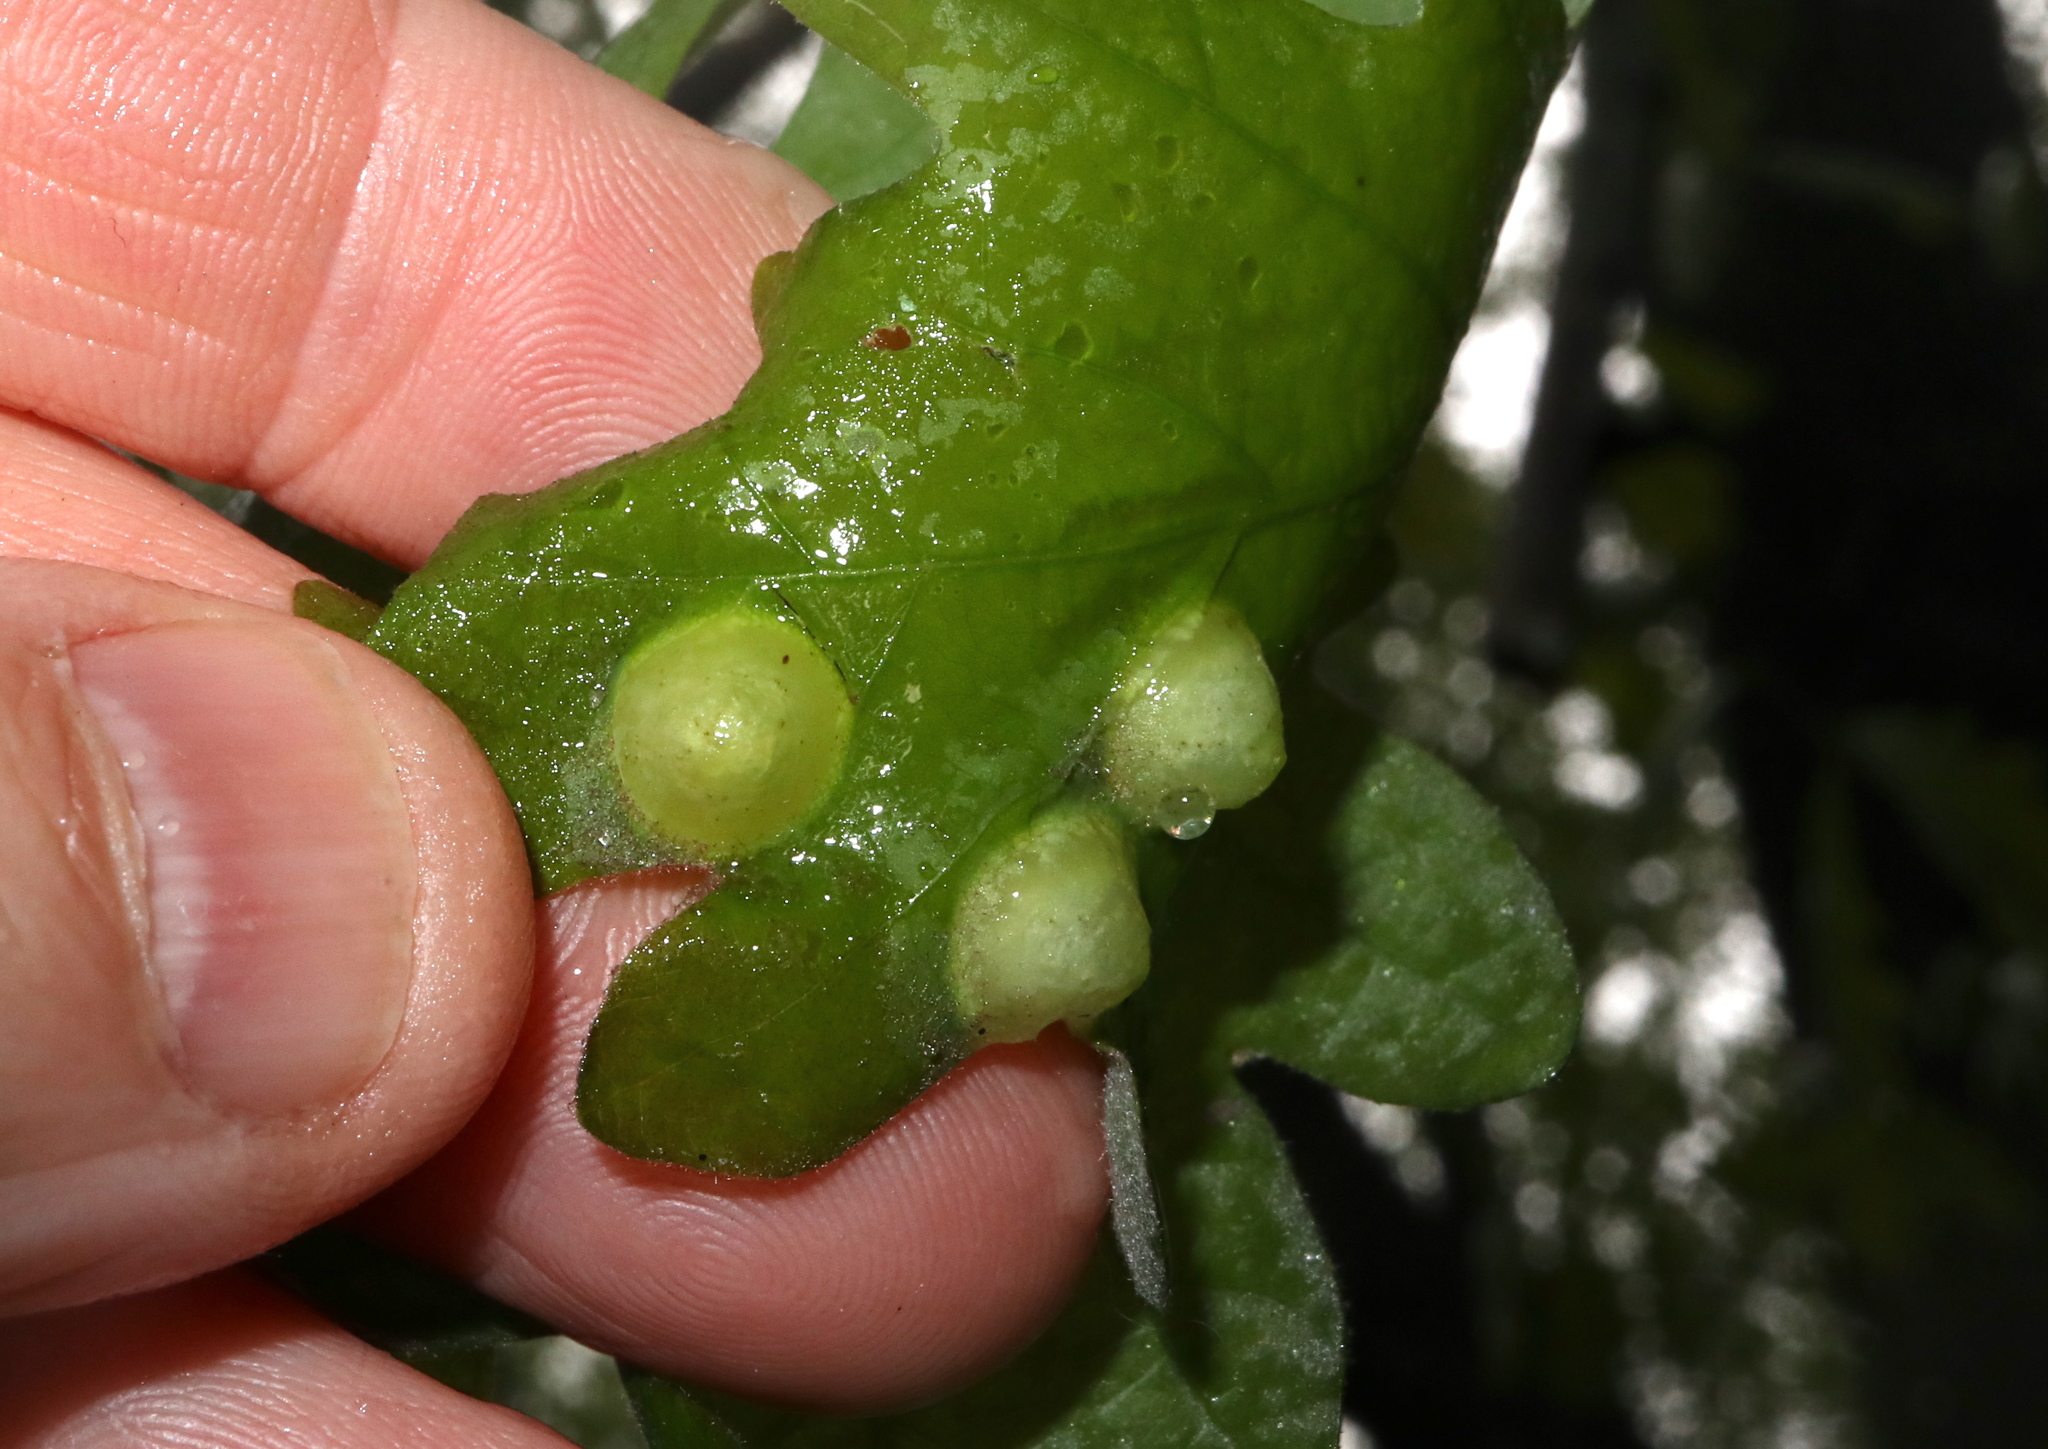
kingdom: Animalia
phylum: Arthropoda
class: Insecta
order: Hymenoptera
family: Cynipidae
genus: Callirhytis
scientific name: Callirhytis
